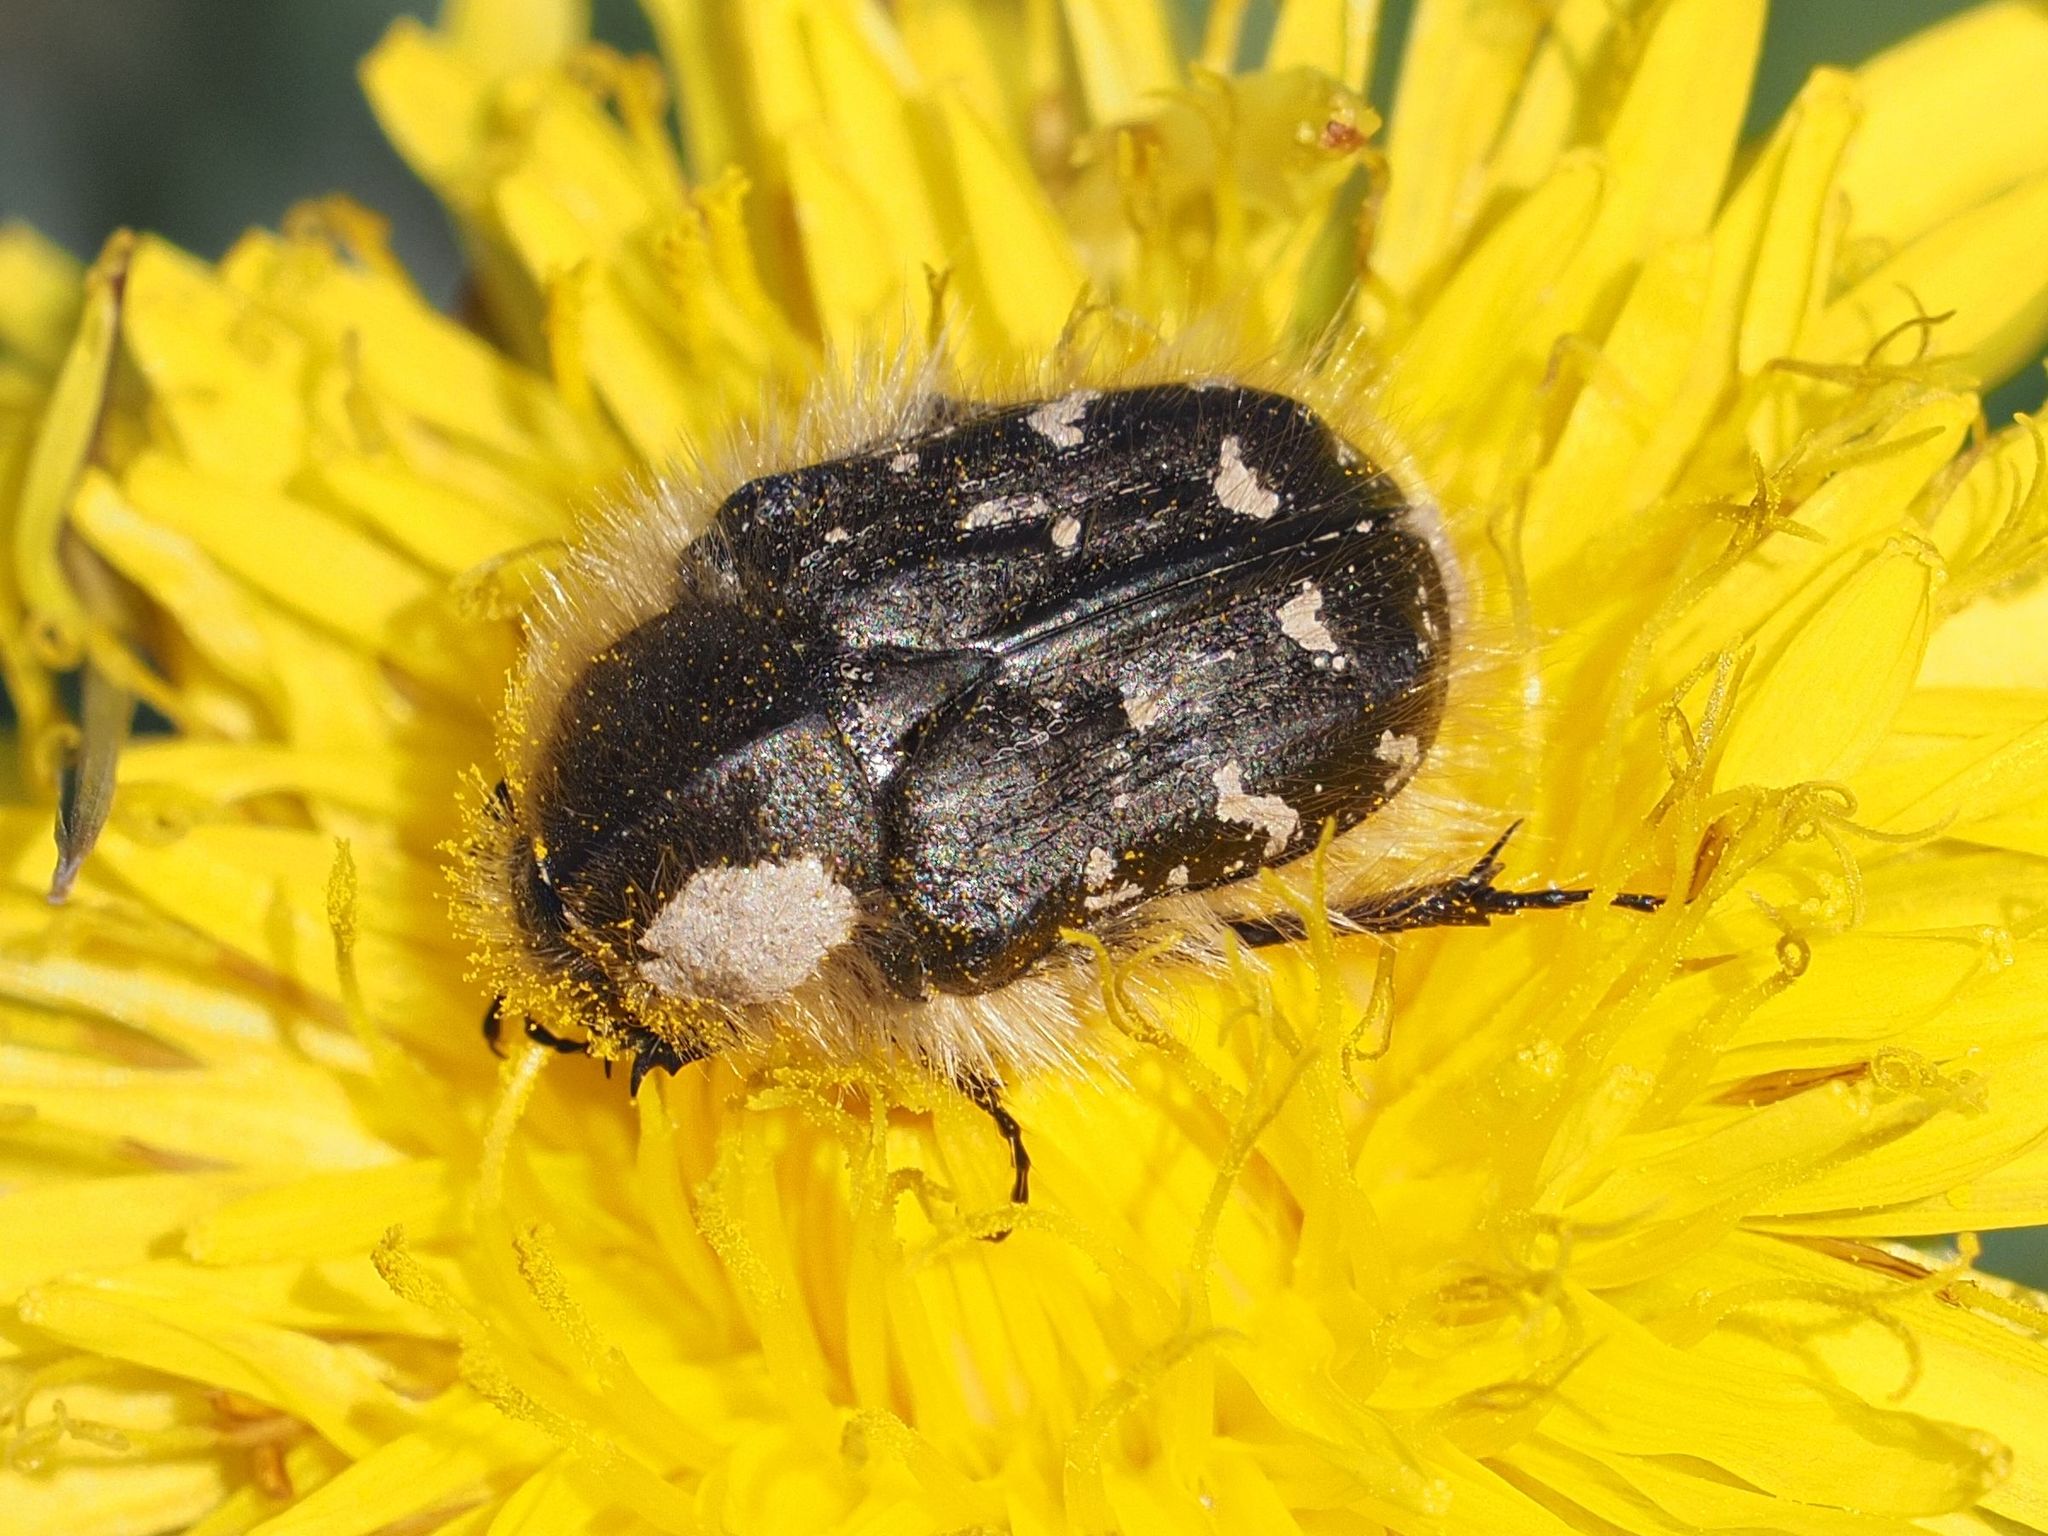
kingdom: Animalia
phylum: Arthropoda
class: Insecta
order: Coleoptera
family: Scarabaeidae
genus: Tropinota
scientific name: Tropinota hirta
